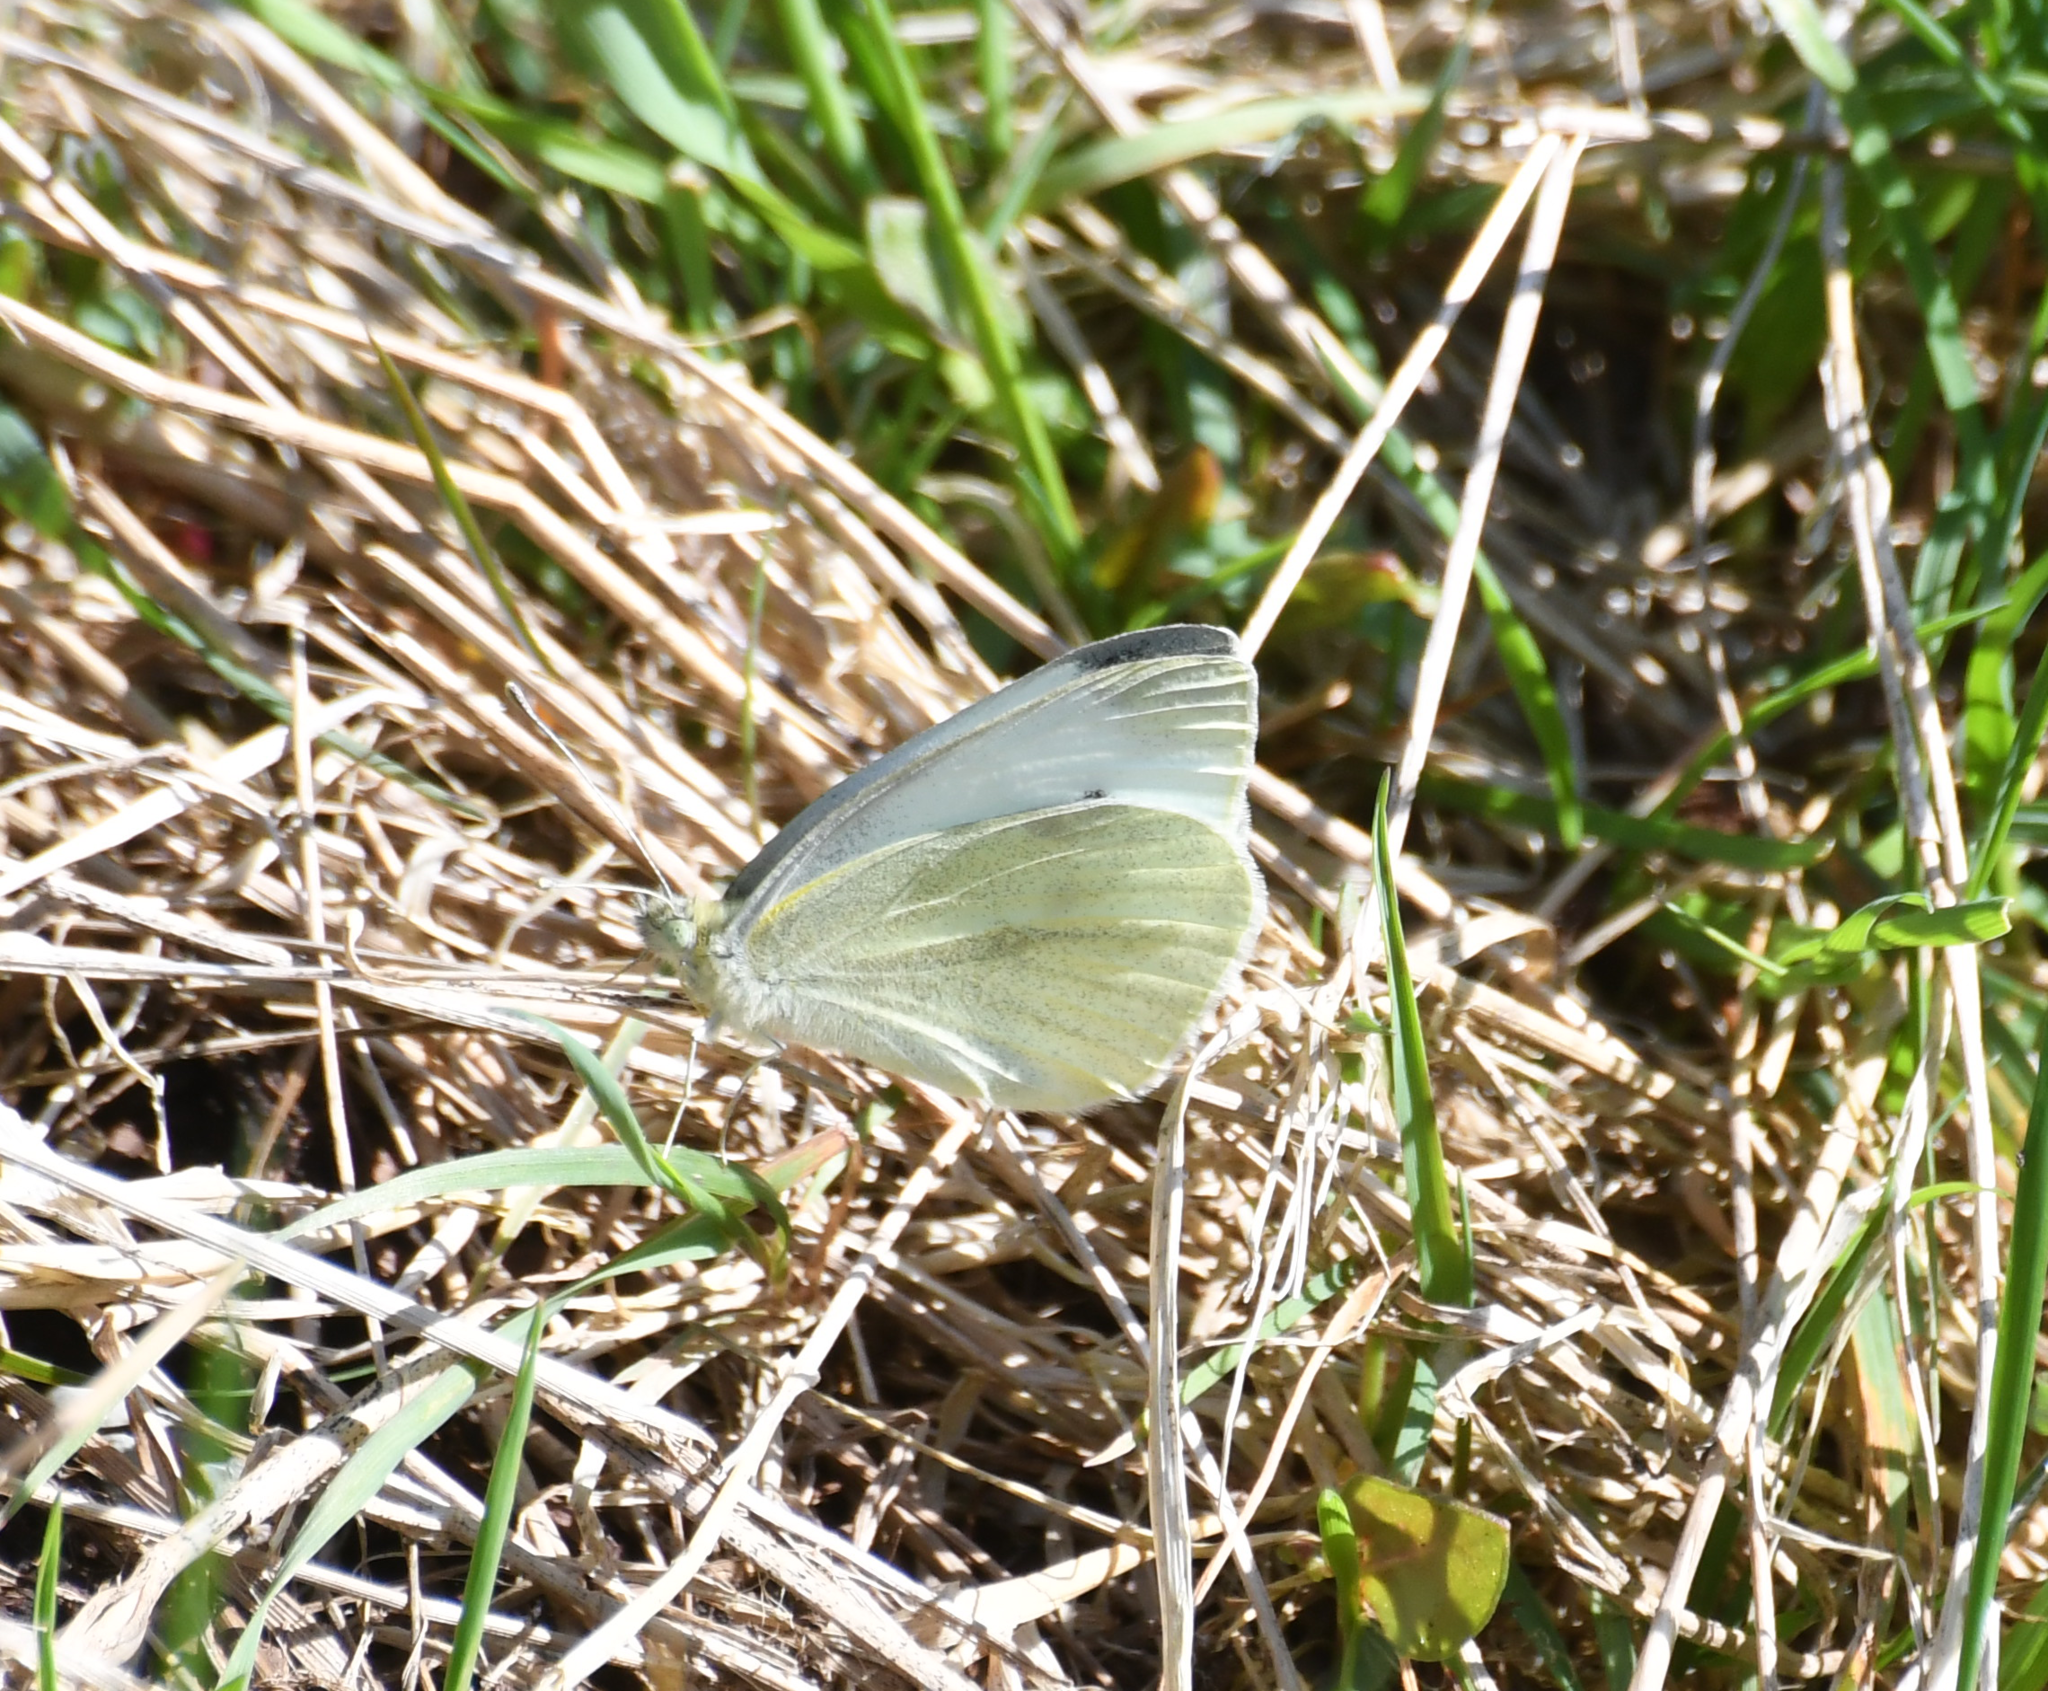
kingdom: Animalia
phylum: Arthropoda
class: Insecta
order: Lepidoptera
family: Pieridae
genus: Pieris
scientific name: Pieris rapae
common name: Small white
